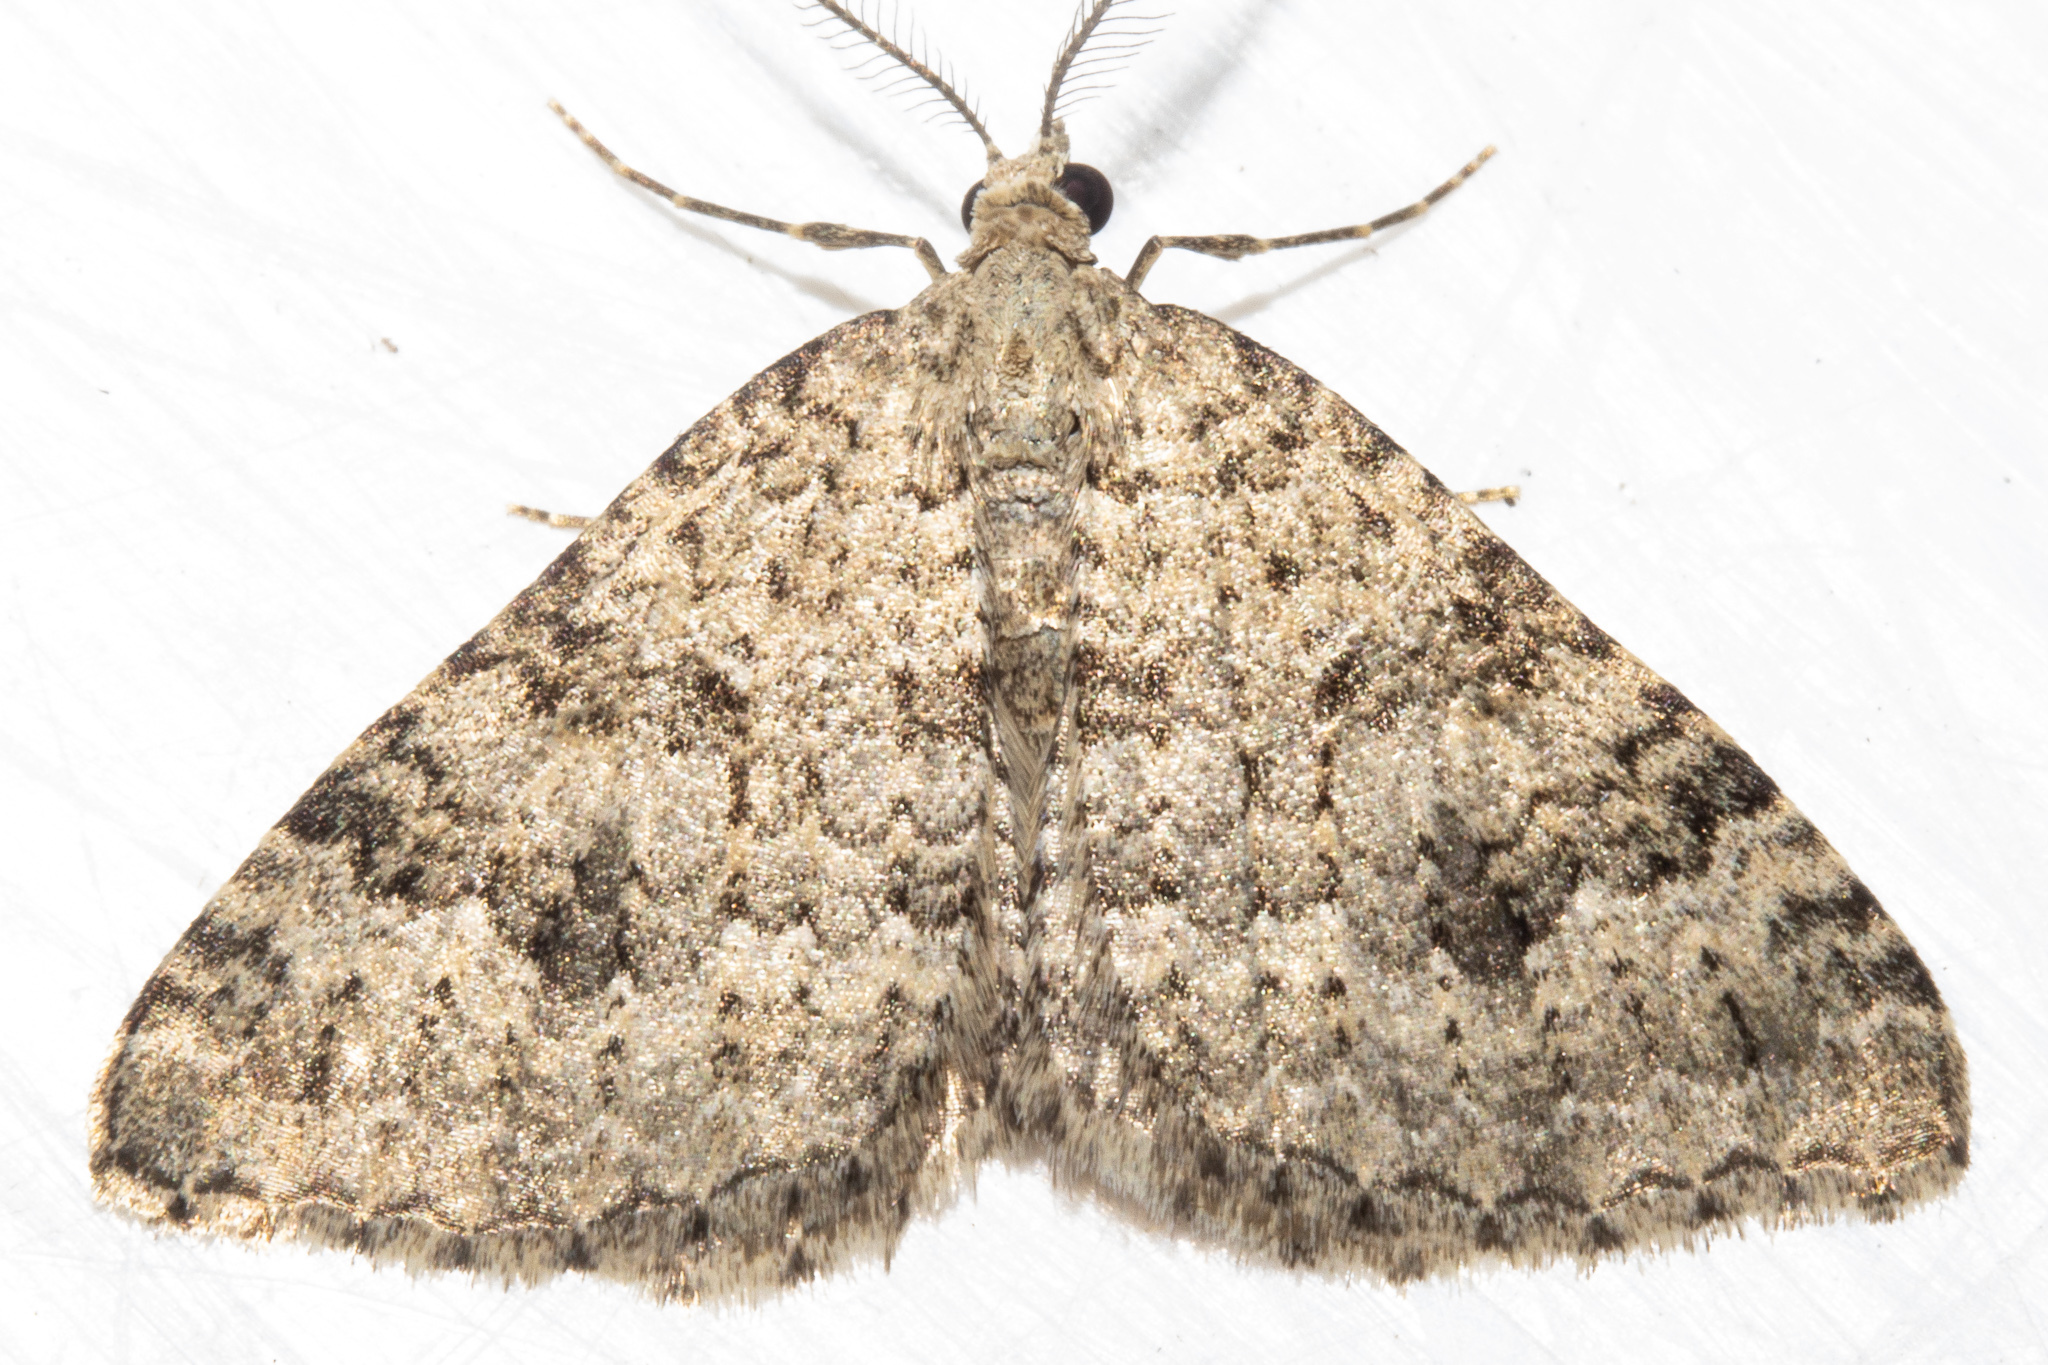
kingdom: Animalia
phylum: Arthropoda
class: Insecta
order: Lepidoptera
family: Geometridae
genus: Helastia
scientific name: Helastia corcularia
